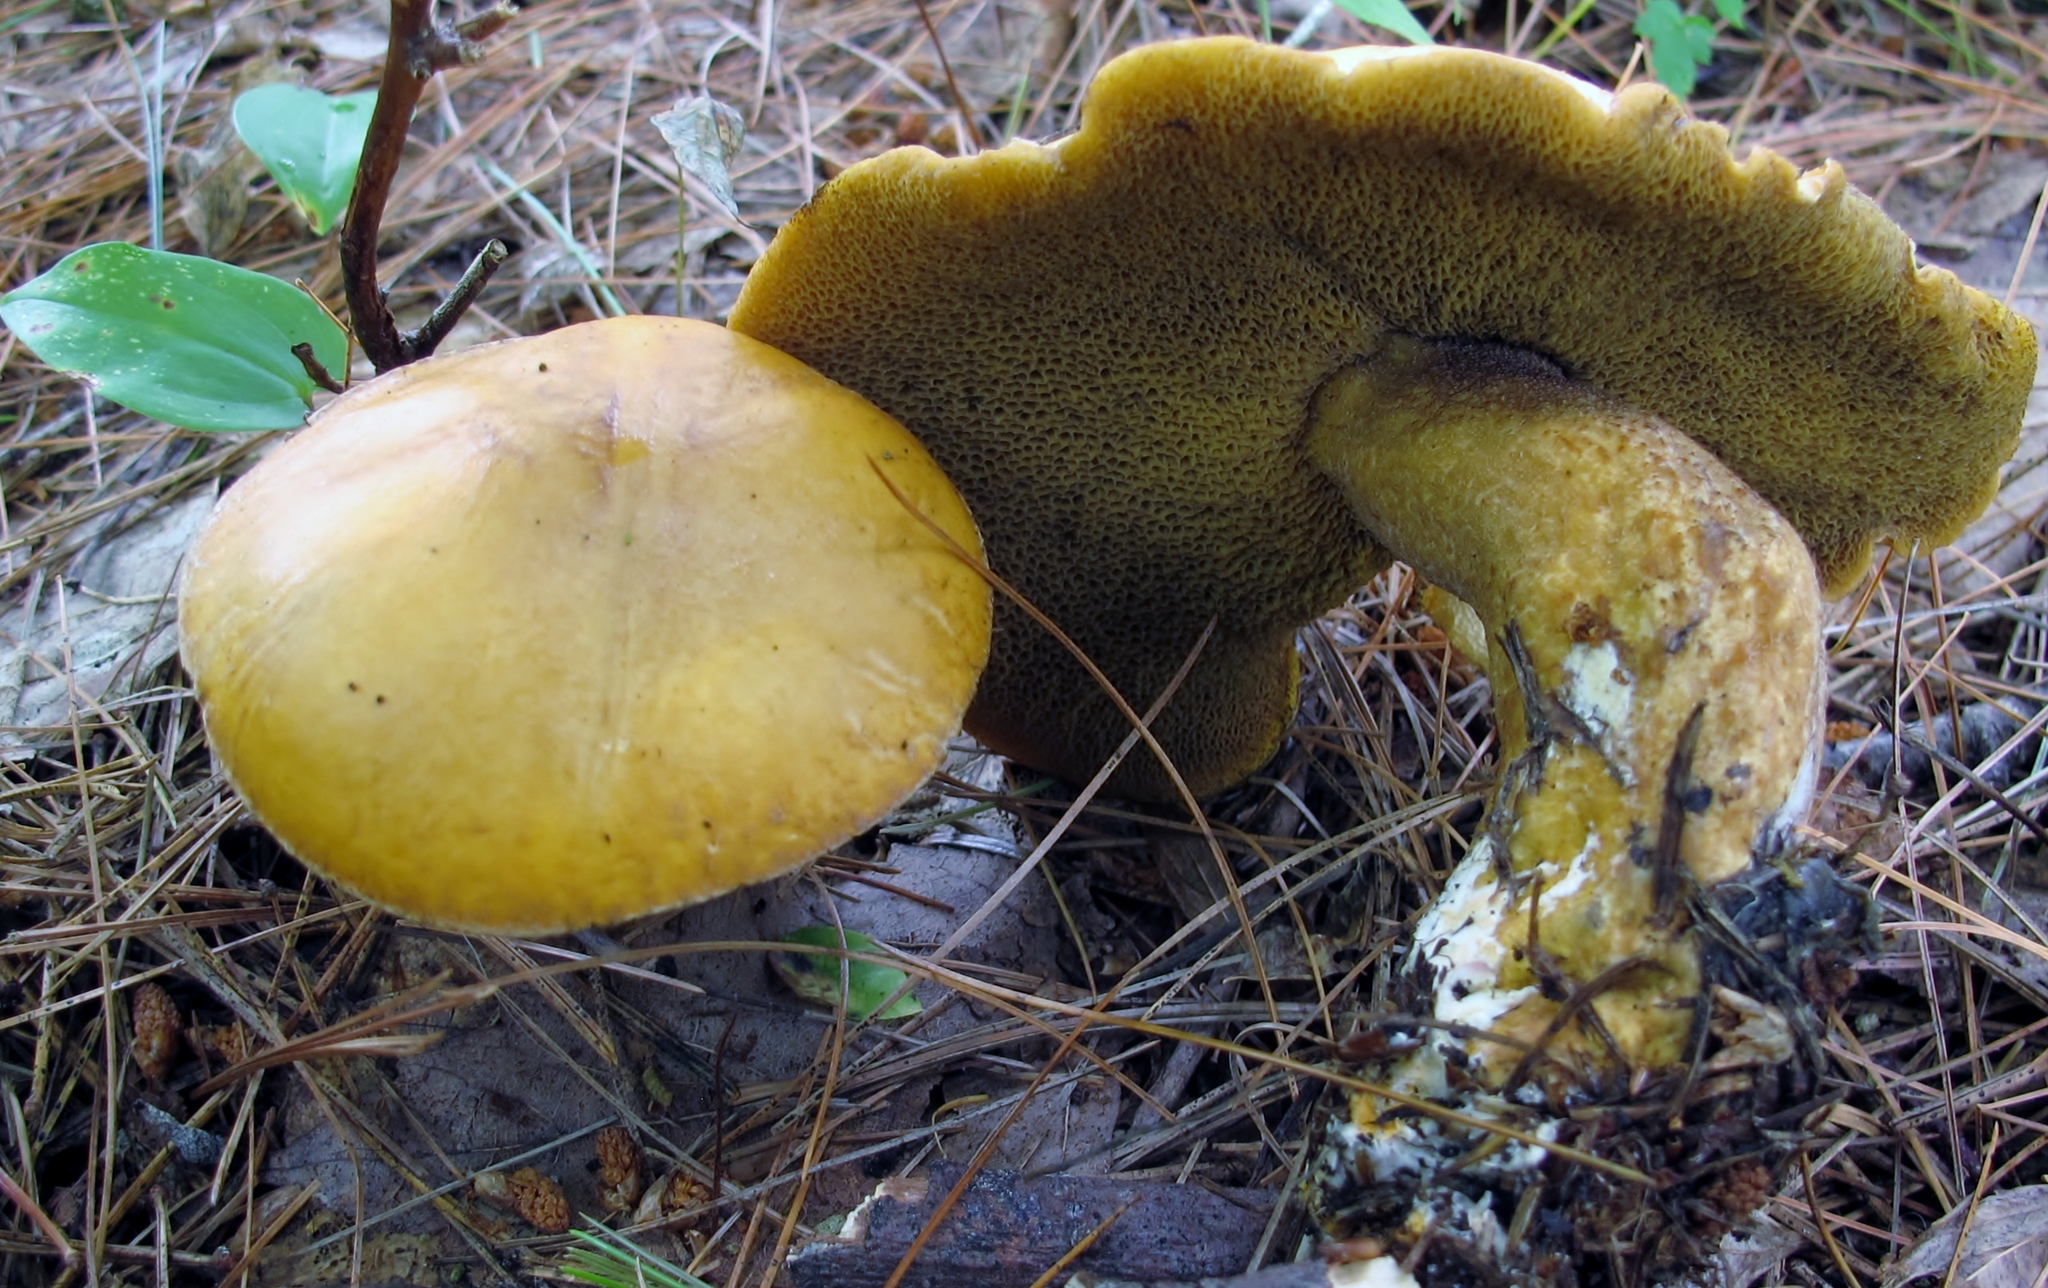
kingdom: Fungi
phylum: Basidiomycota
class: Agaricomycetes
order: Boletales
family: Suillaceae
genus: Suillus
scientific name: Suillus punctipes
